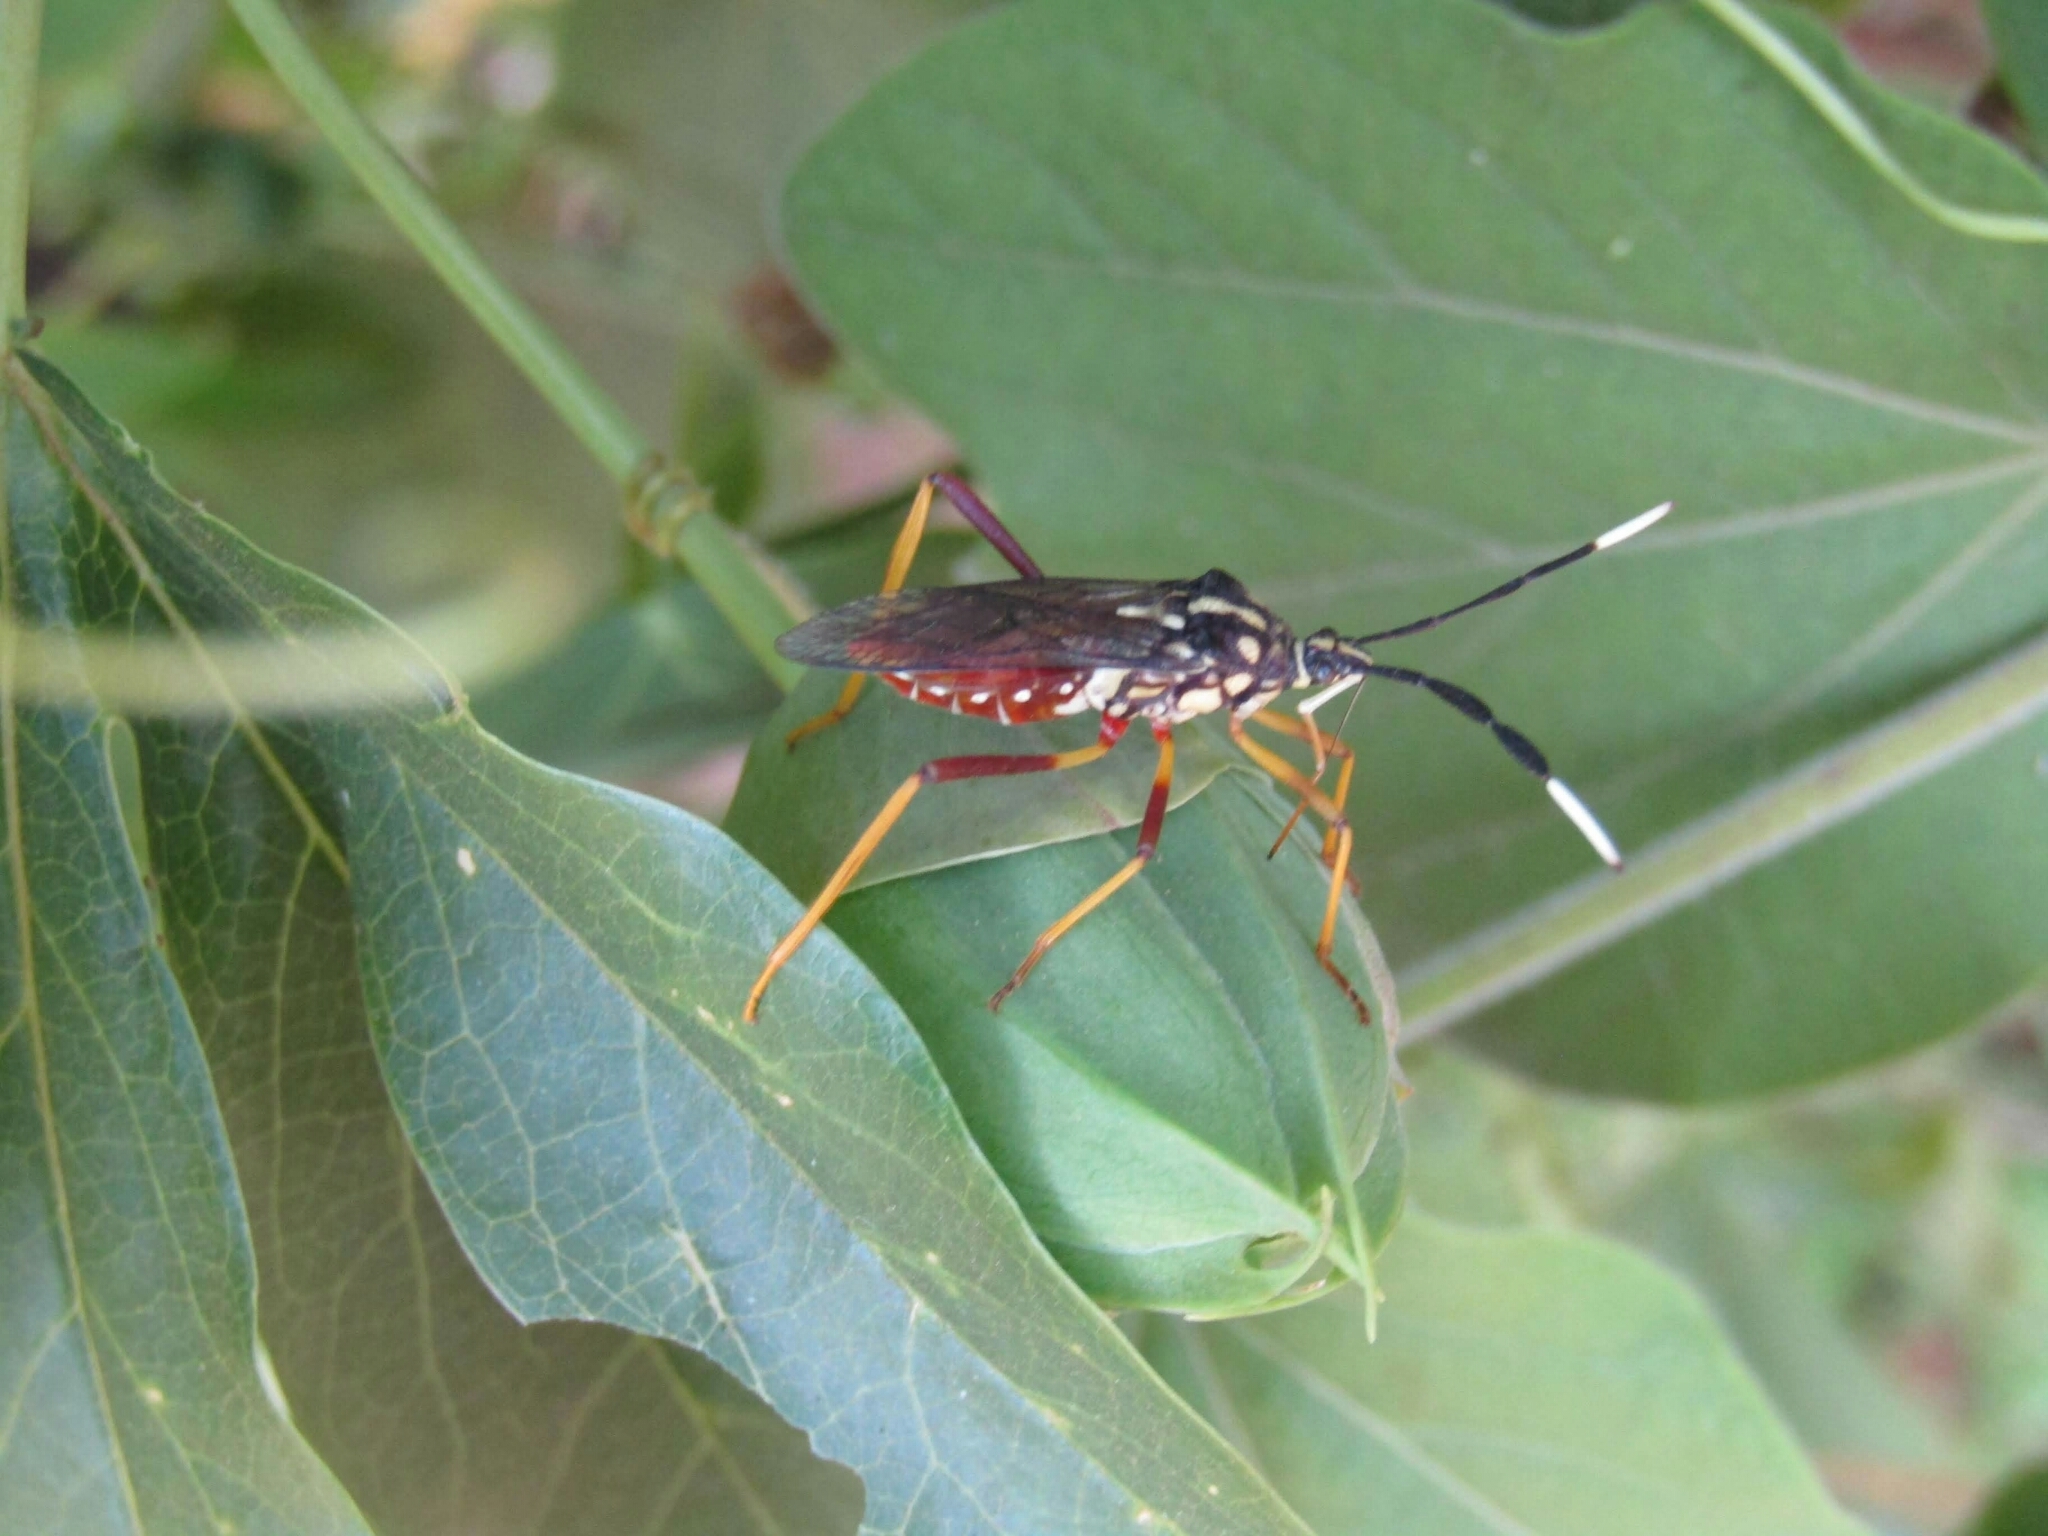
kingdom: Animalia
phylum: Arthropoda
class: Insecta
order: Hemiptera
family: Coreidae
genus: Holhymenia
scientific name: Holhymenia histrio
